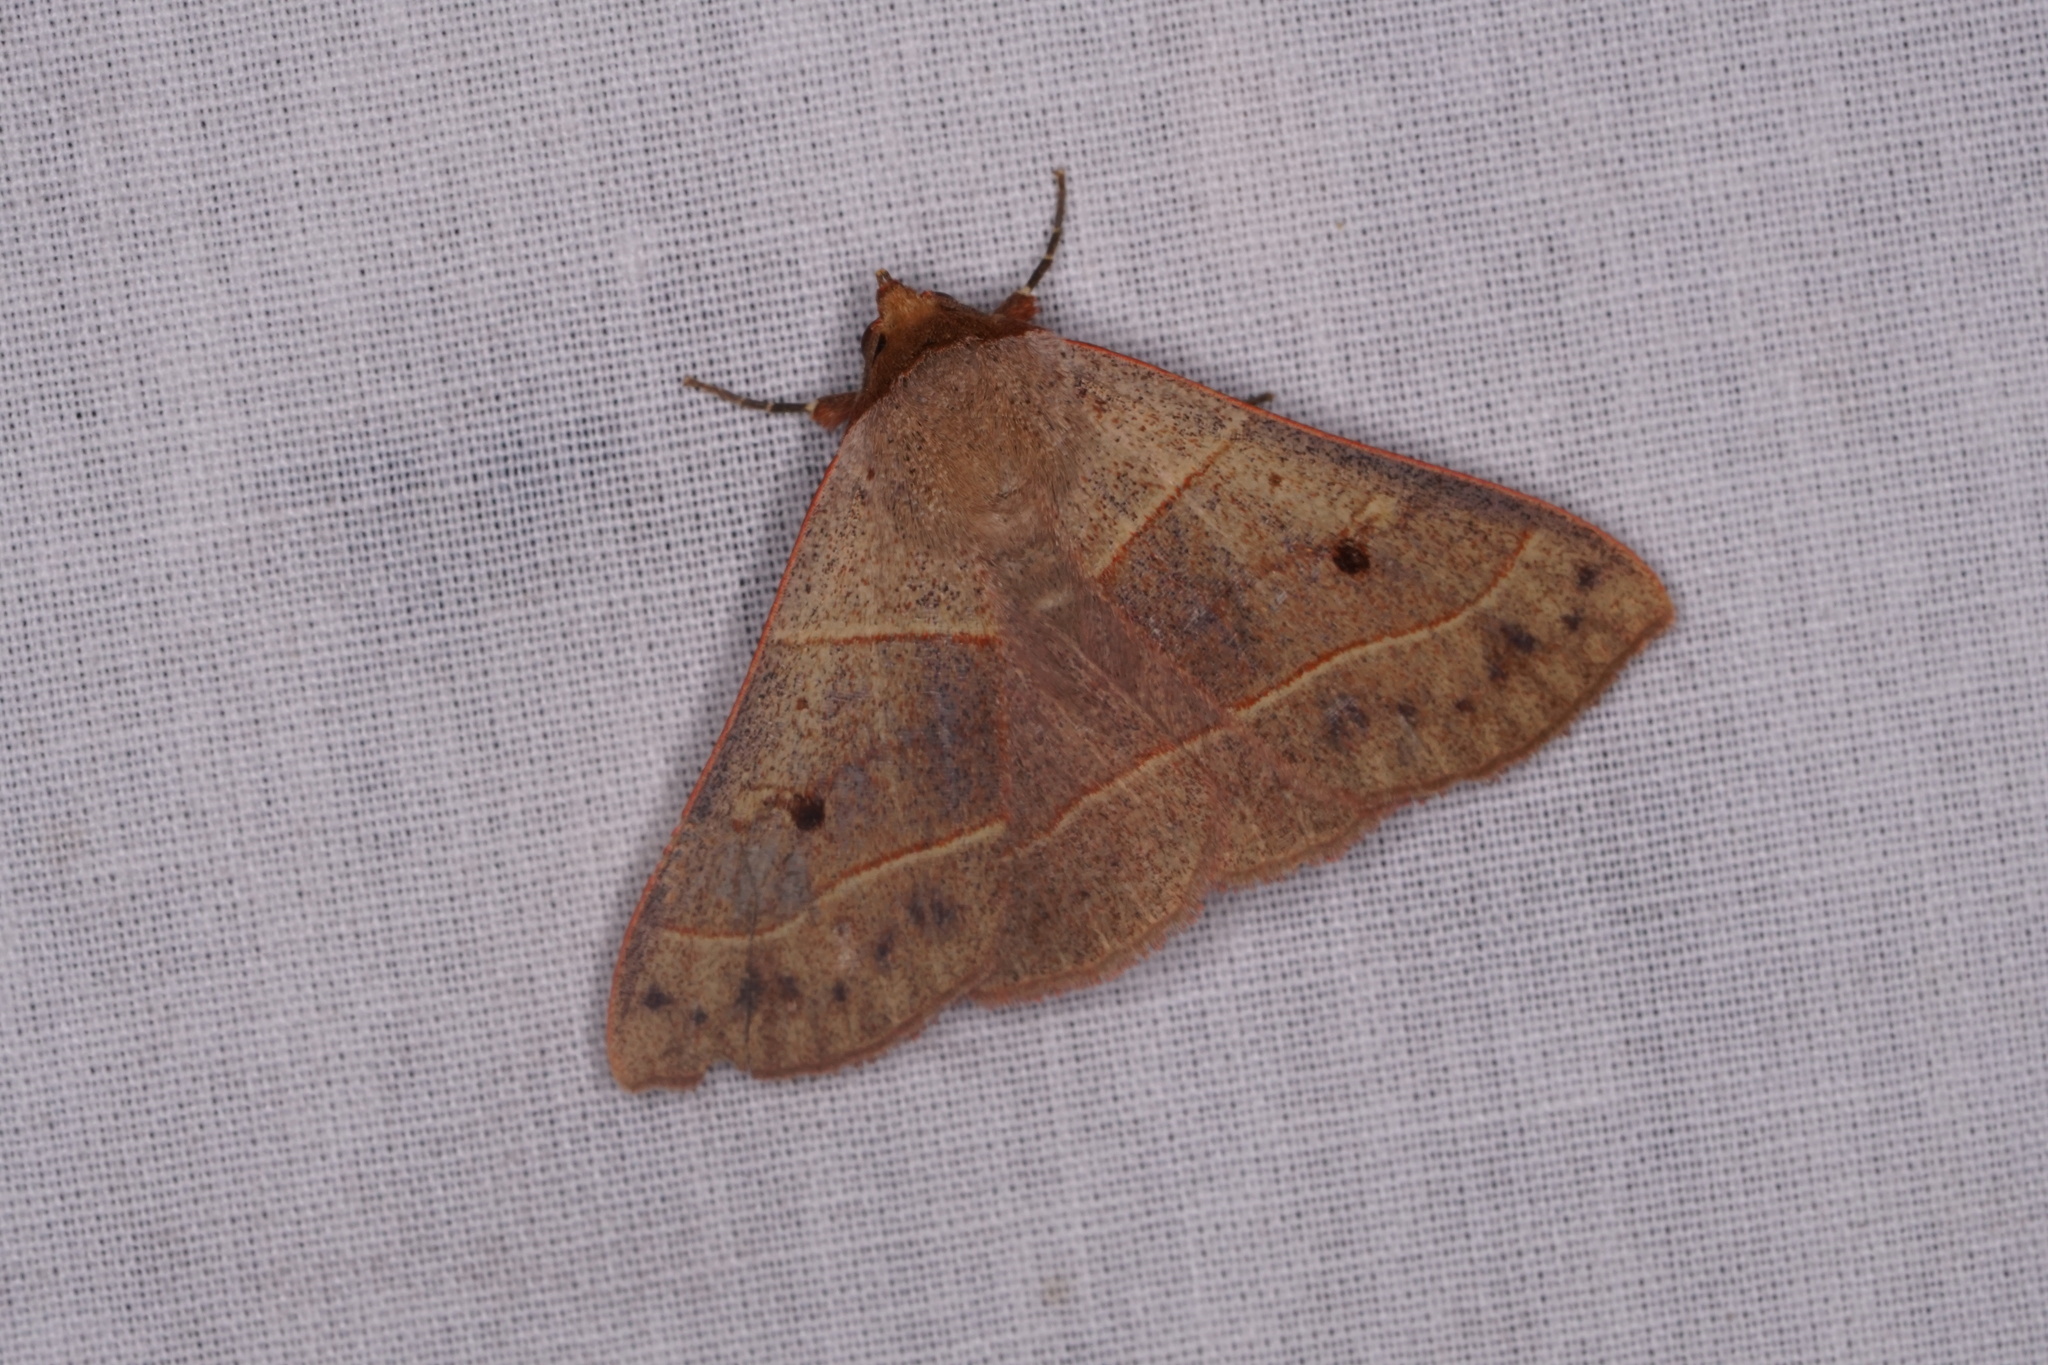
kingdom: Animalia
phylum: Arthropoda
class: Insecta
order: Lepidoptera
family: Erebidae
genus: Panopoda
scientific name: Panopoda rufimargo
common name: Red-lined panopoda moth
